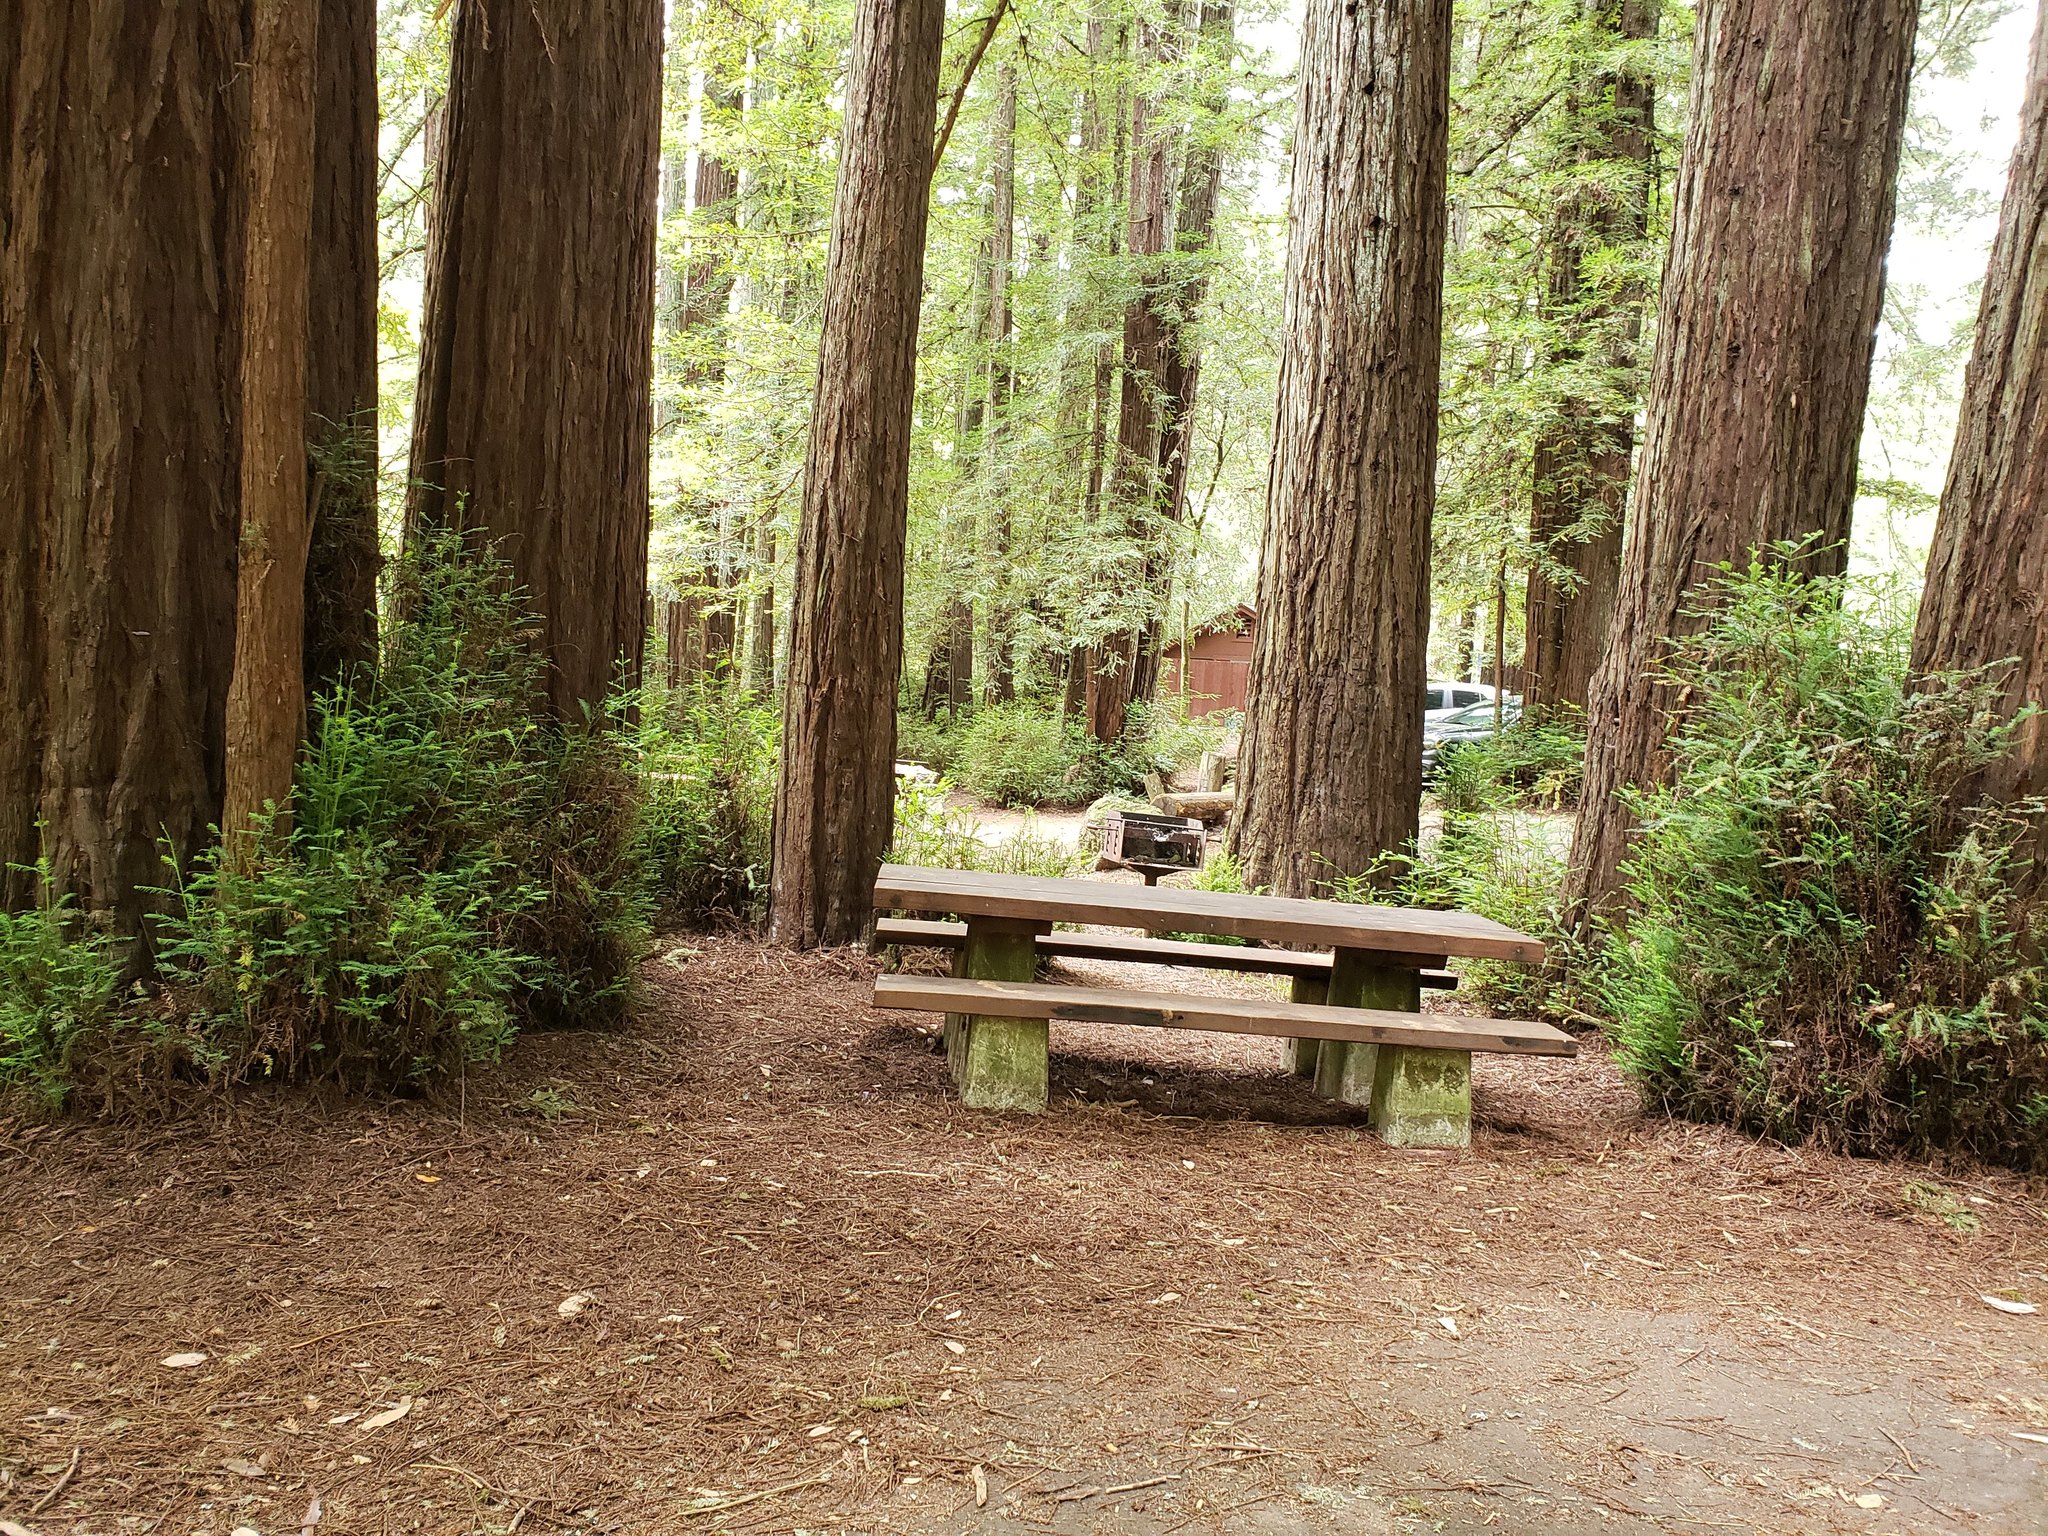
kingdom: Plantae
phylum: Tracheophyta
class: Pinopsida
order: Pinales
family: Cupressaceae
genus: Sequoia
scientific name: Sequoia sempervirens
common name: Coast redwood
